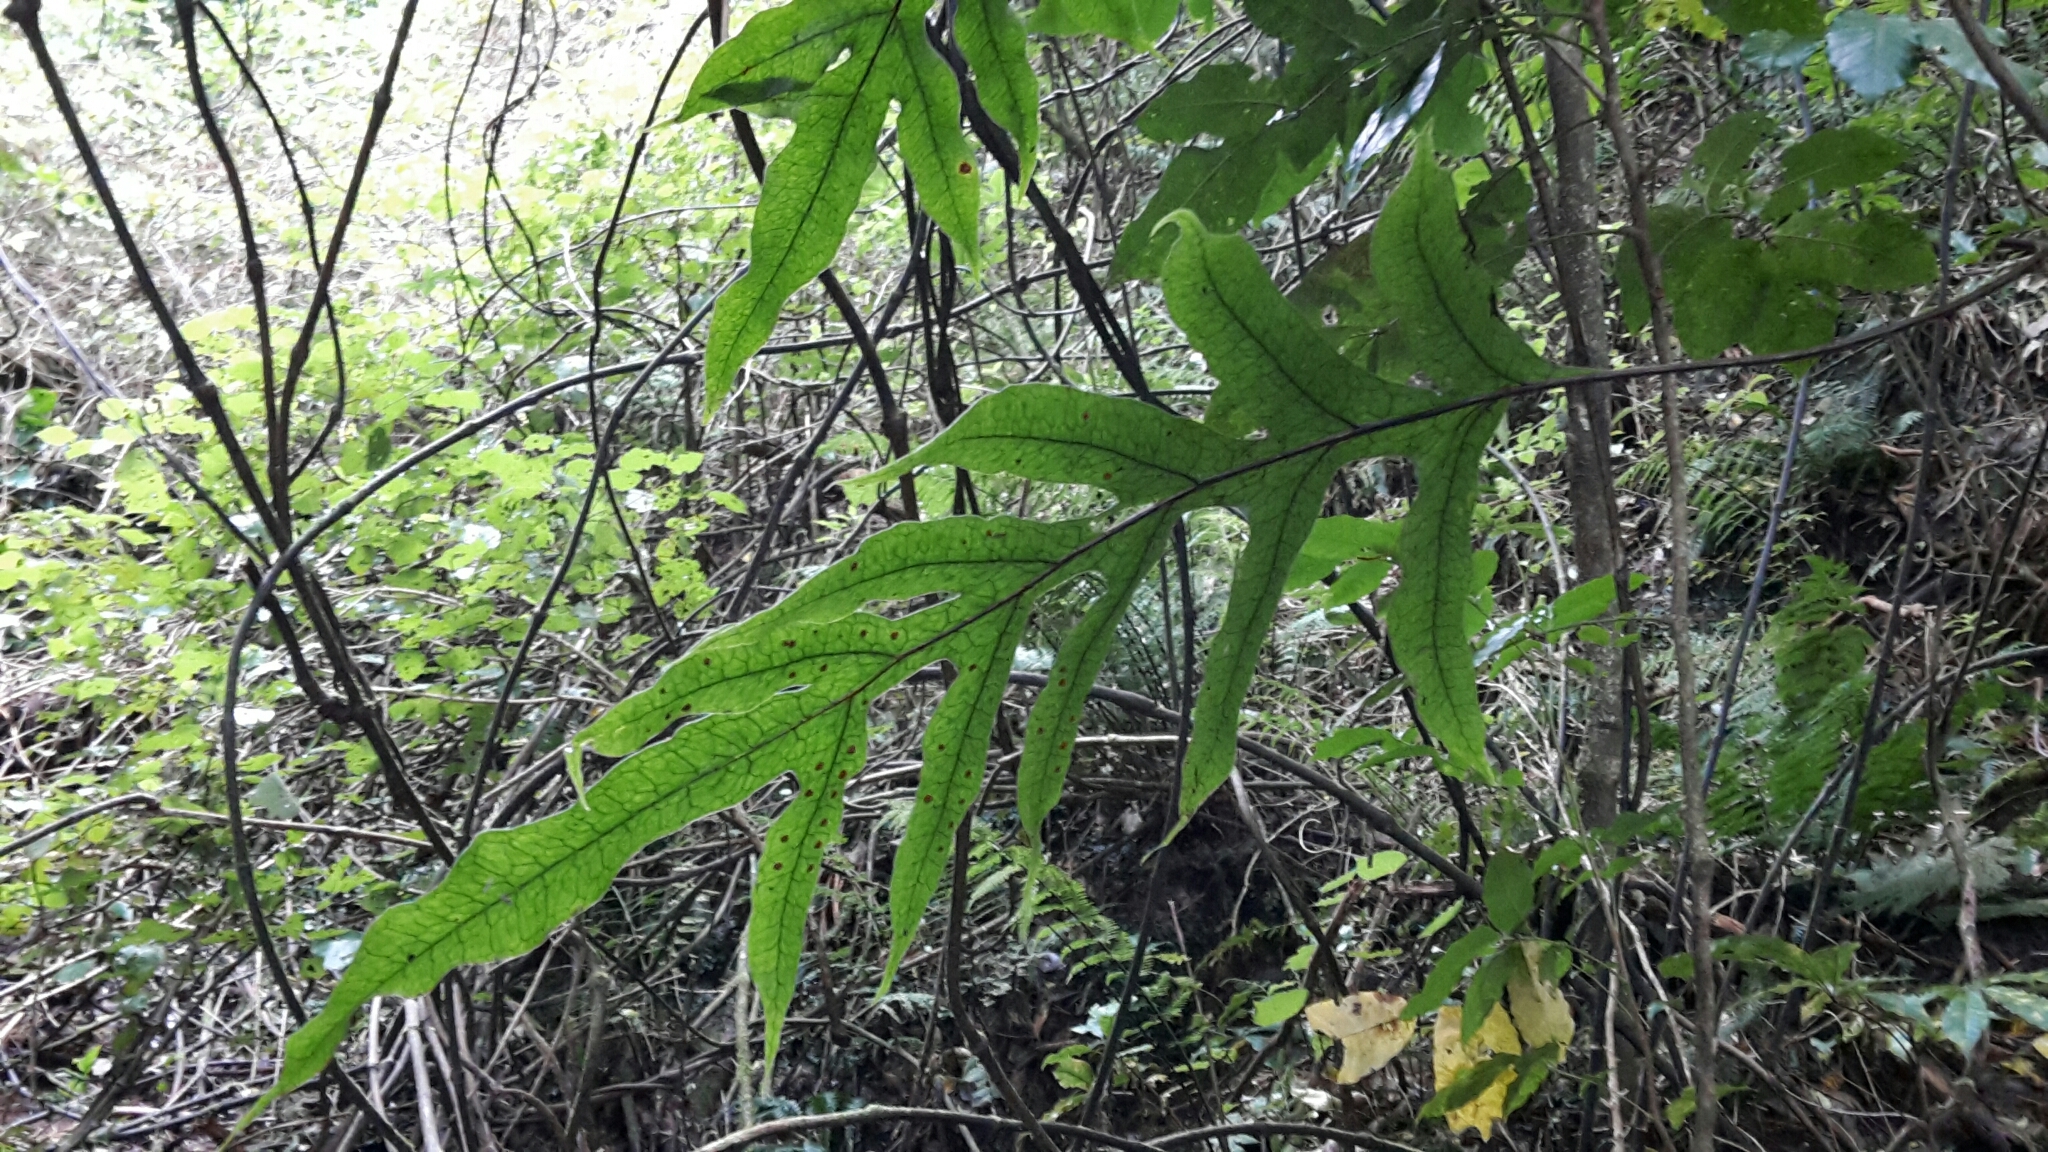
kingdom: Plantae
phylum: Tracheophyta
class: Polypodiopsida
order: Polypodiales
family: Polypodiaceae
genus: Lecanopteris
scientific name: Lecanopteris pustulata
